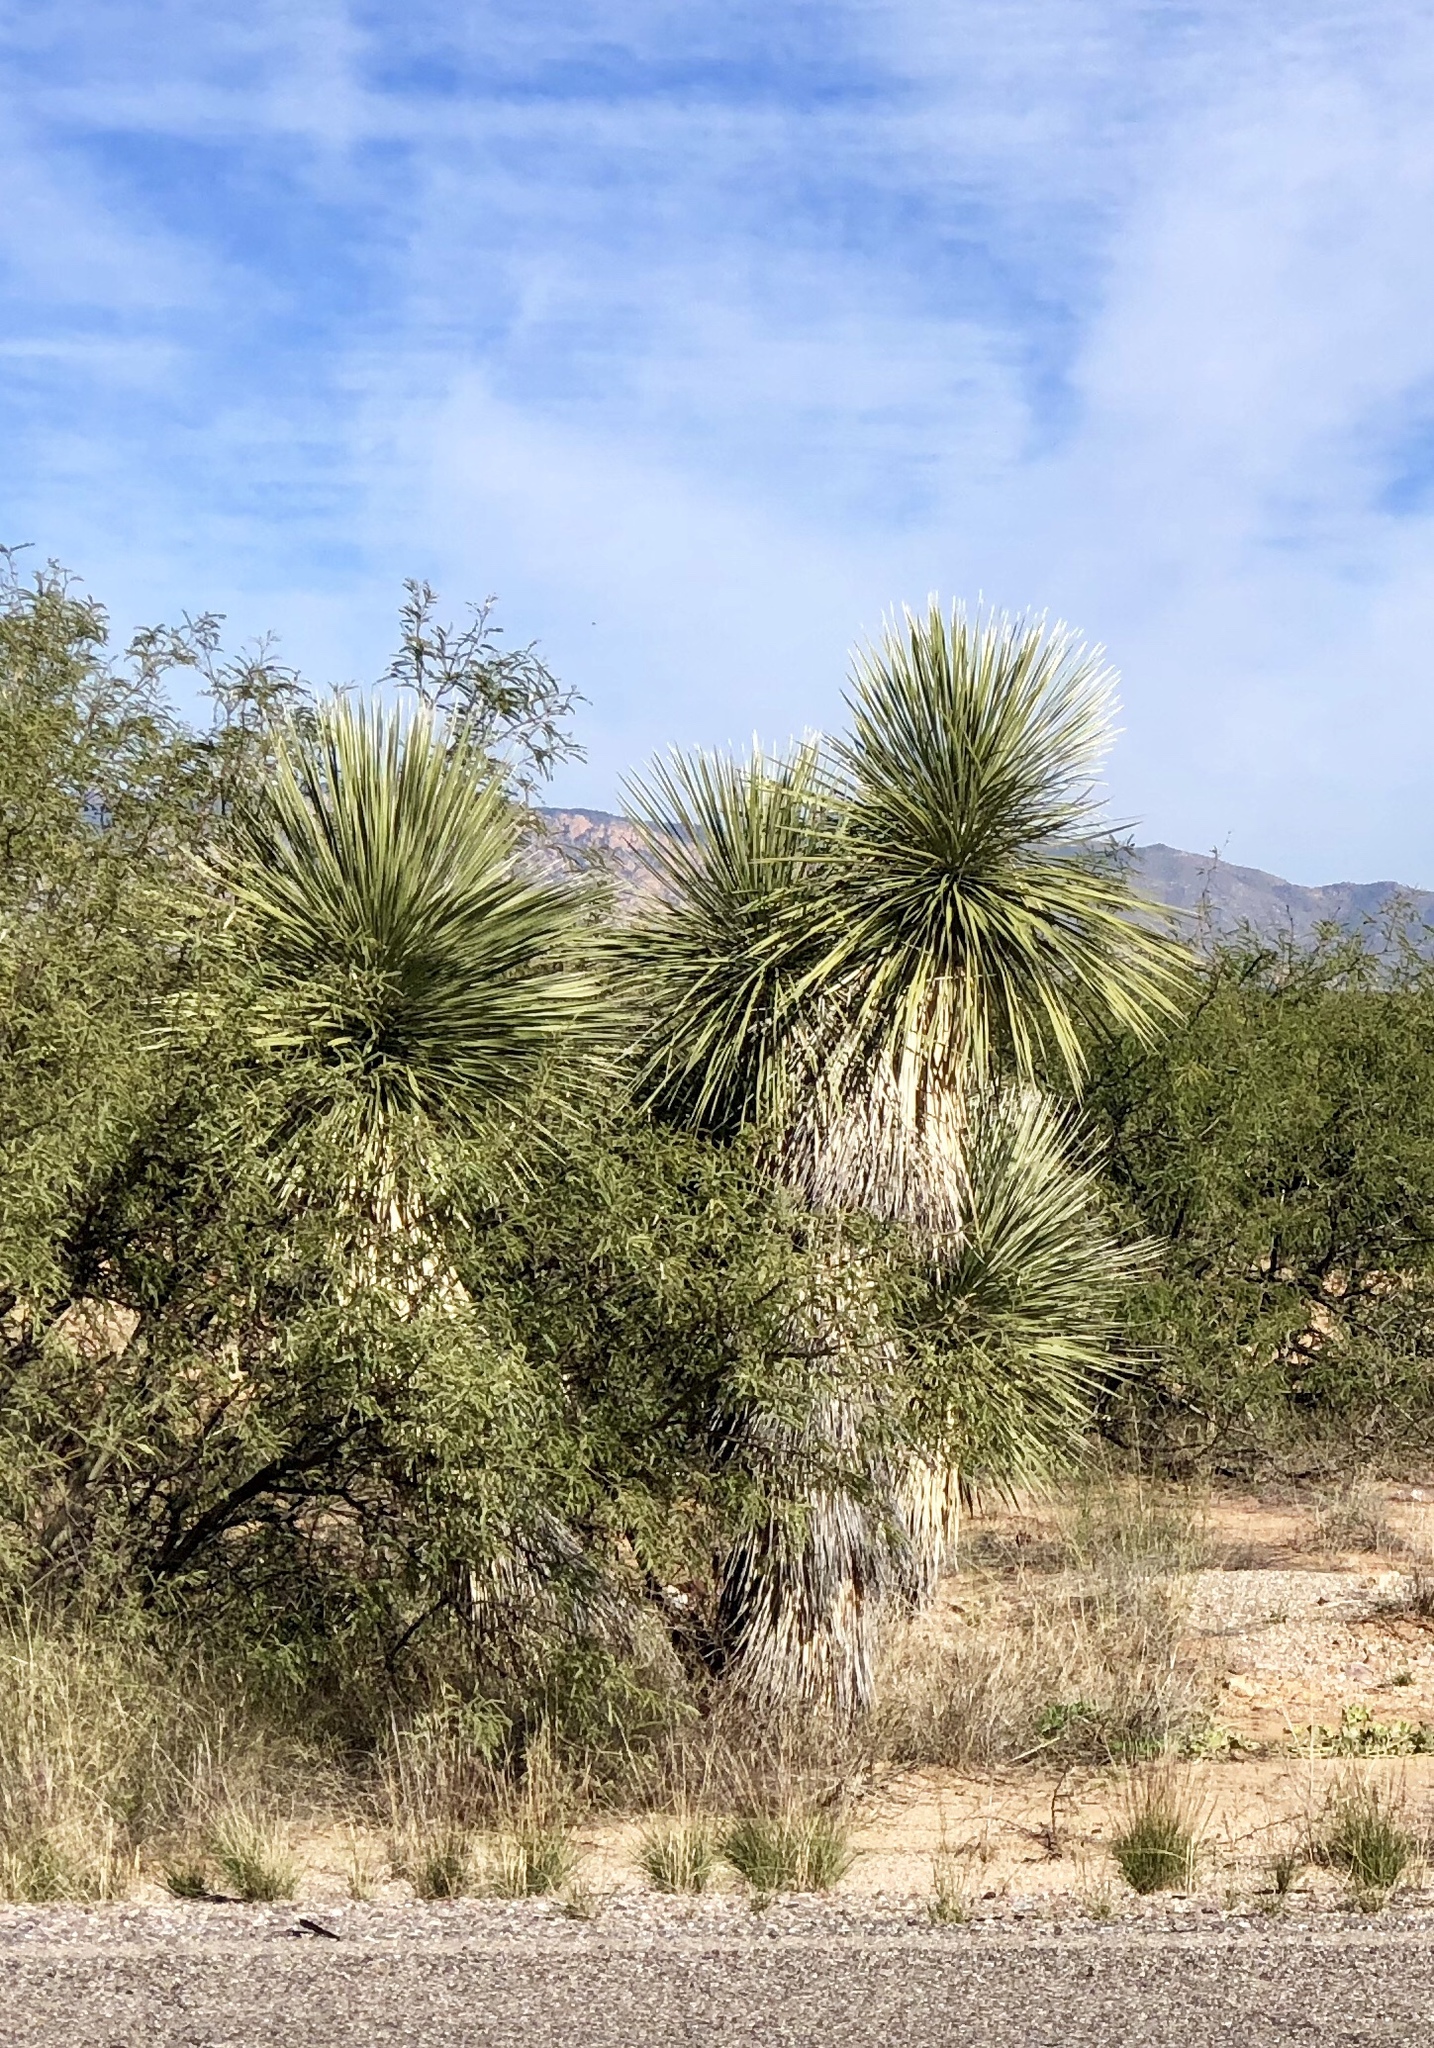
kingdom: Plantae
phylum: Tracheophyta
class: Liliopsida
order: Asparagales
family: Asparagaceae
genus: Yucca
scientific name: Yucca elata
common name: Palmella
